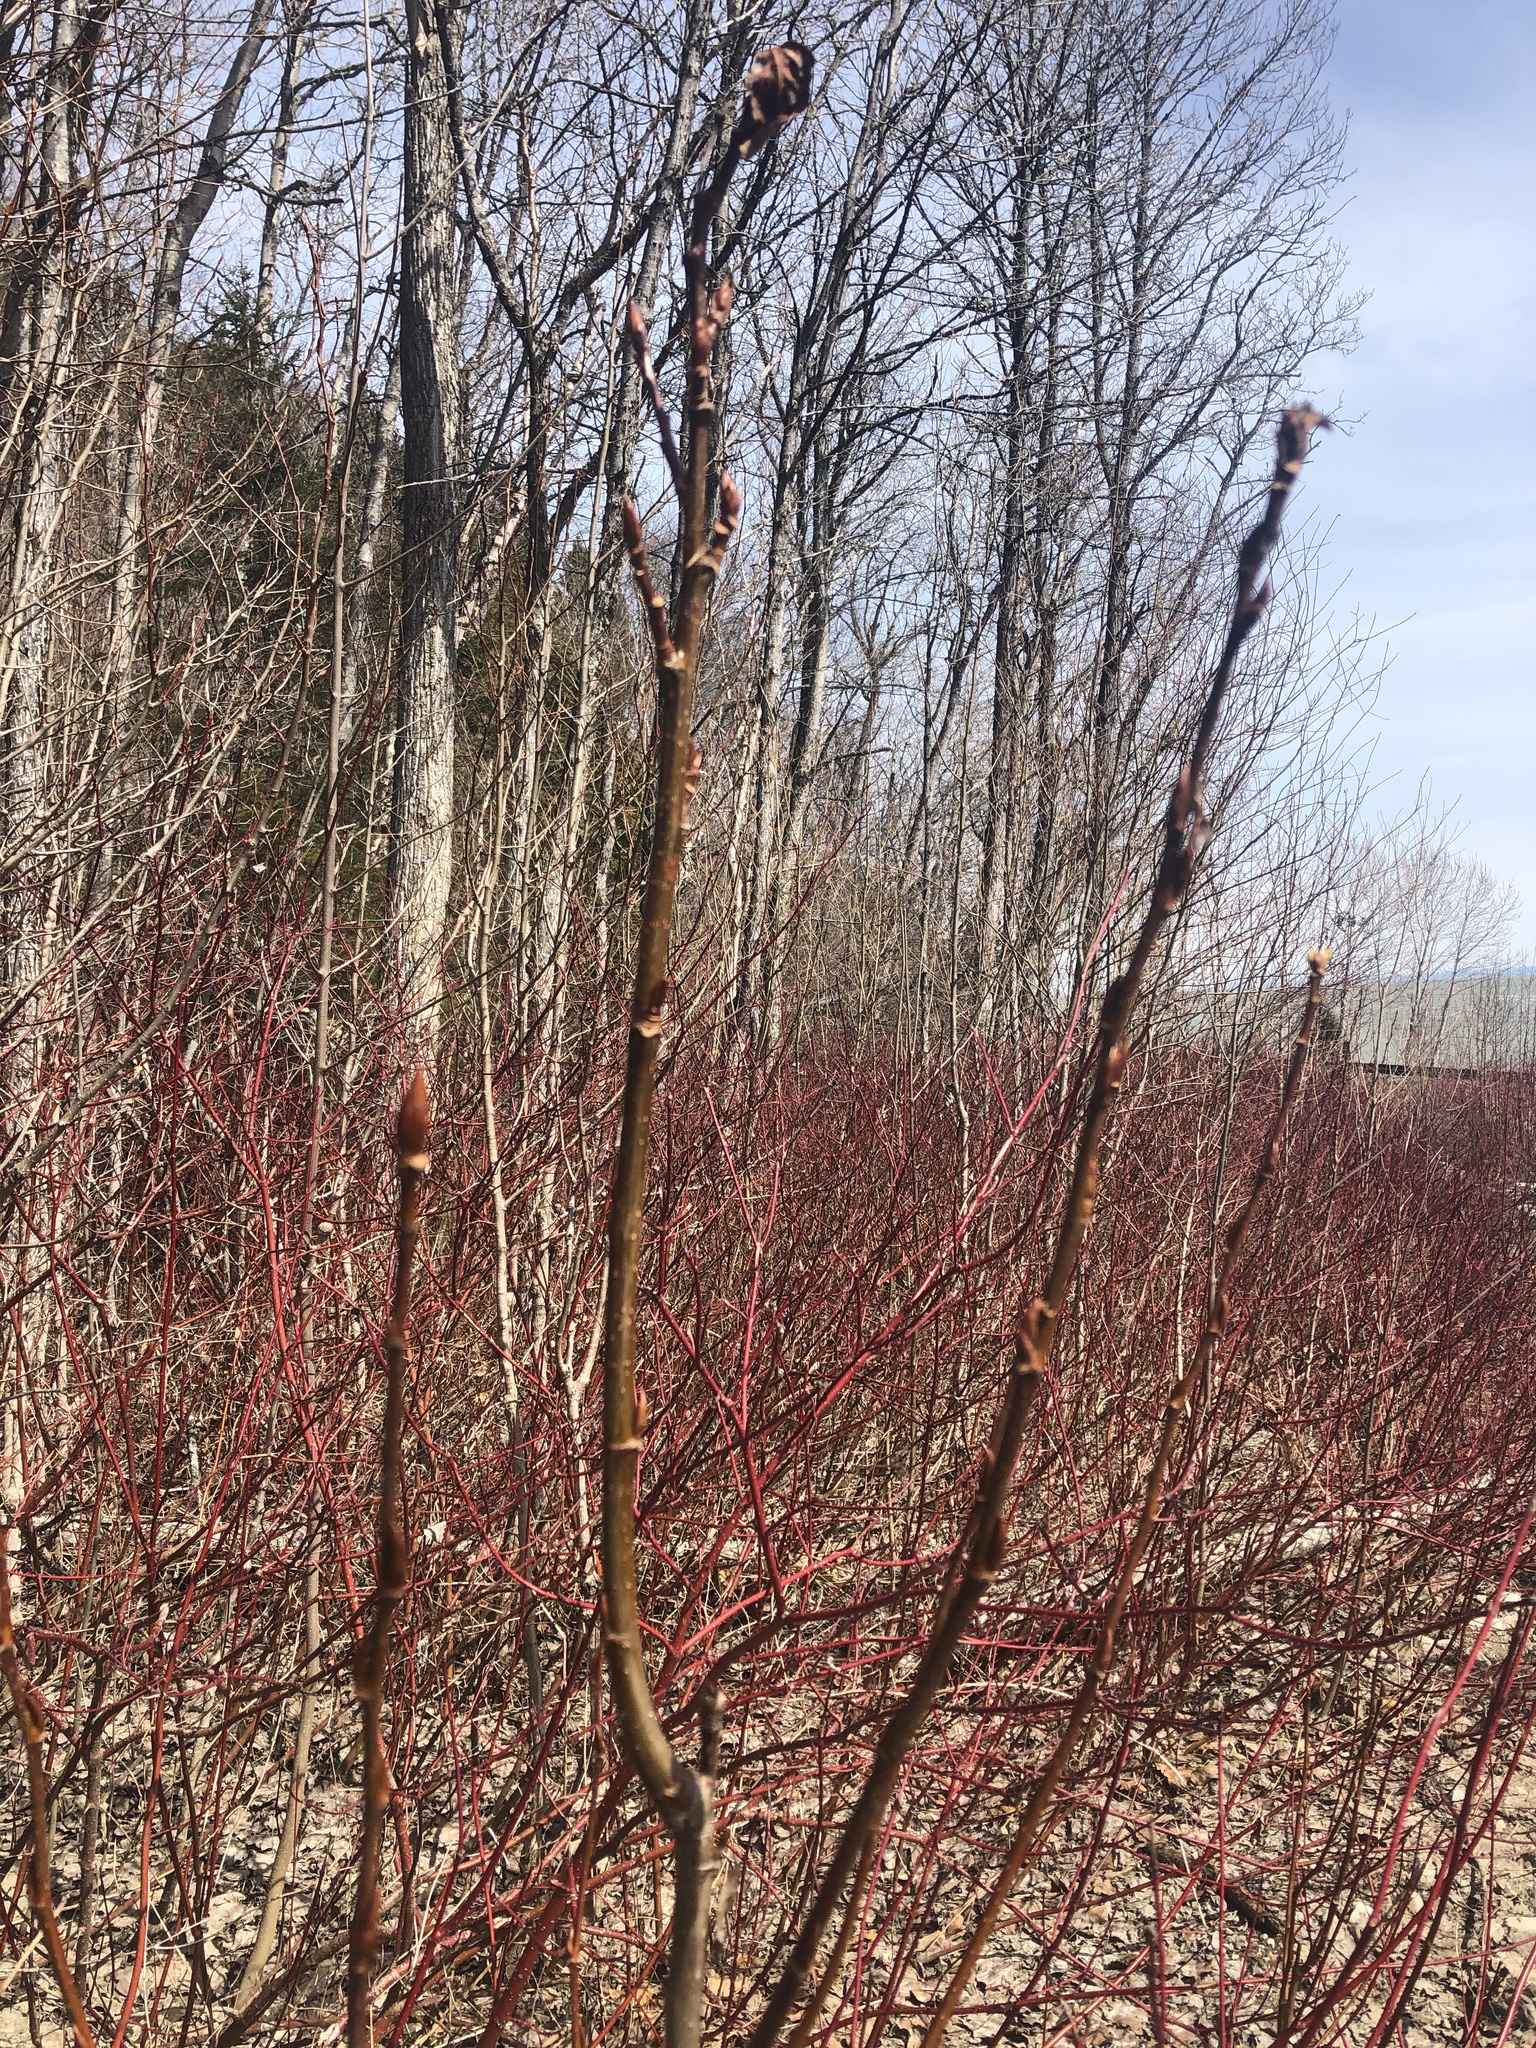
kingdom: Plantae
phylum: Tracheophyta
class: Magnoliopsida
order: Malpighiales
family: Salicaceae
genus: Populus
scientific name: Populus balsamifera
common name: Balsam poplar
